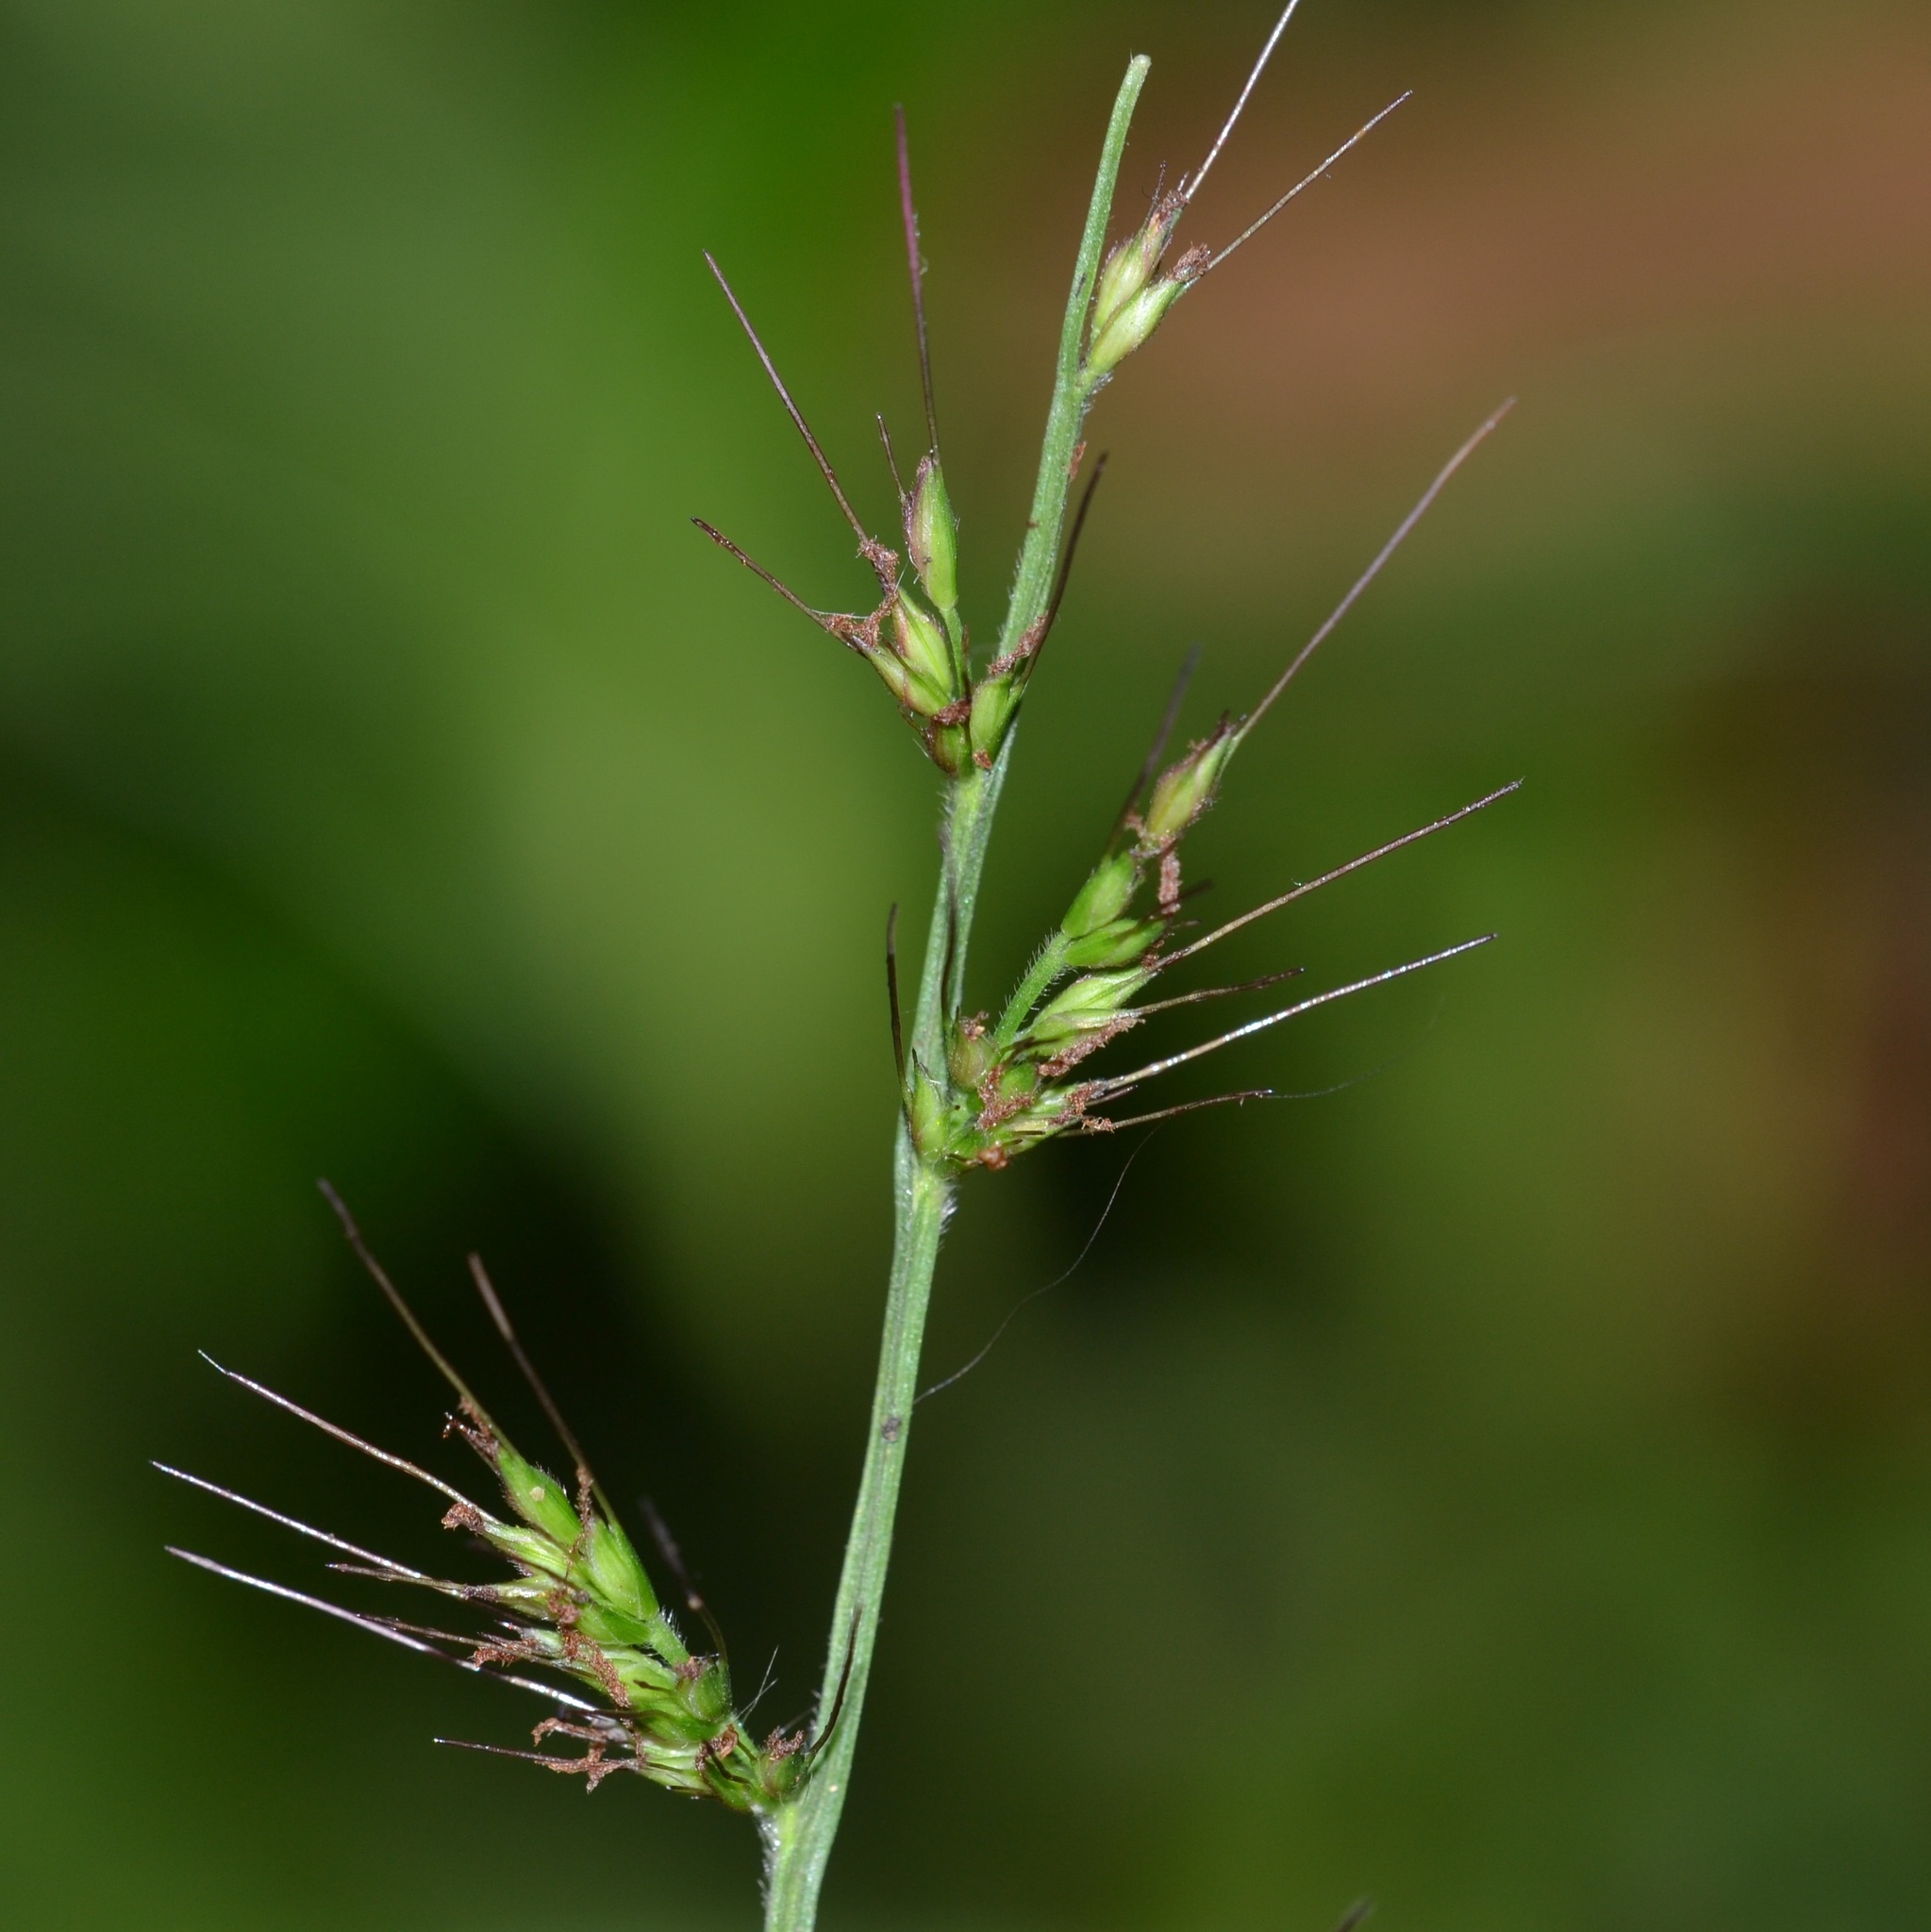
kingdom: Plantae
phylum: Tracheophyta
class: Liliopsida
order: Poales
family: Poaceae
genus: Oplismenus
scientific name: Oplismenus hirtellus
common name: Basketgrass
